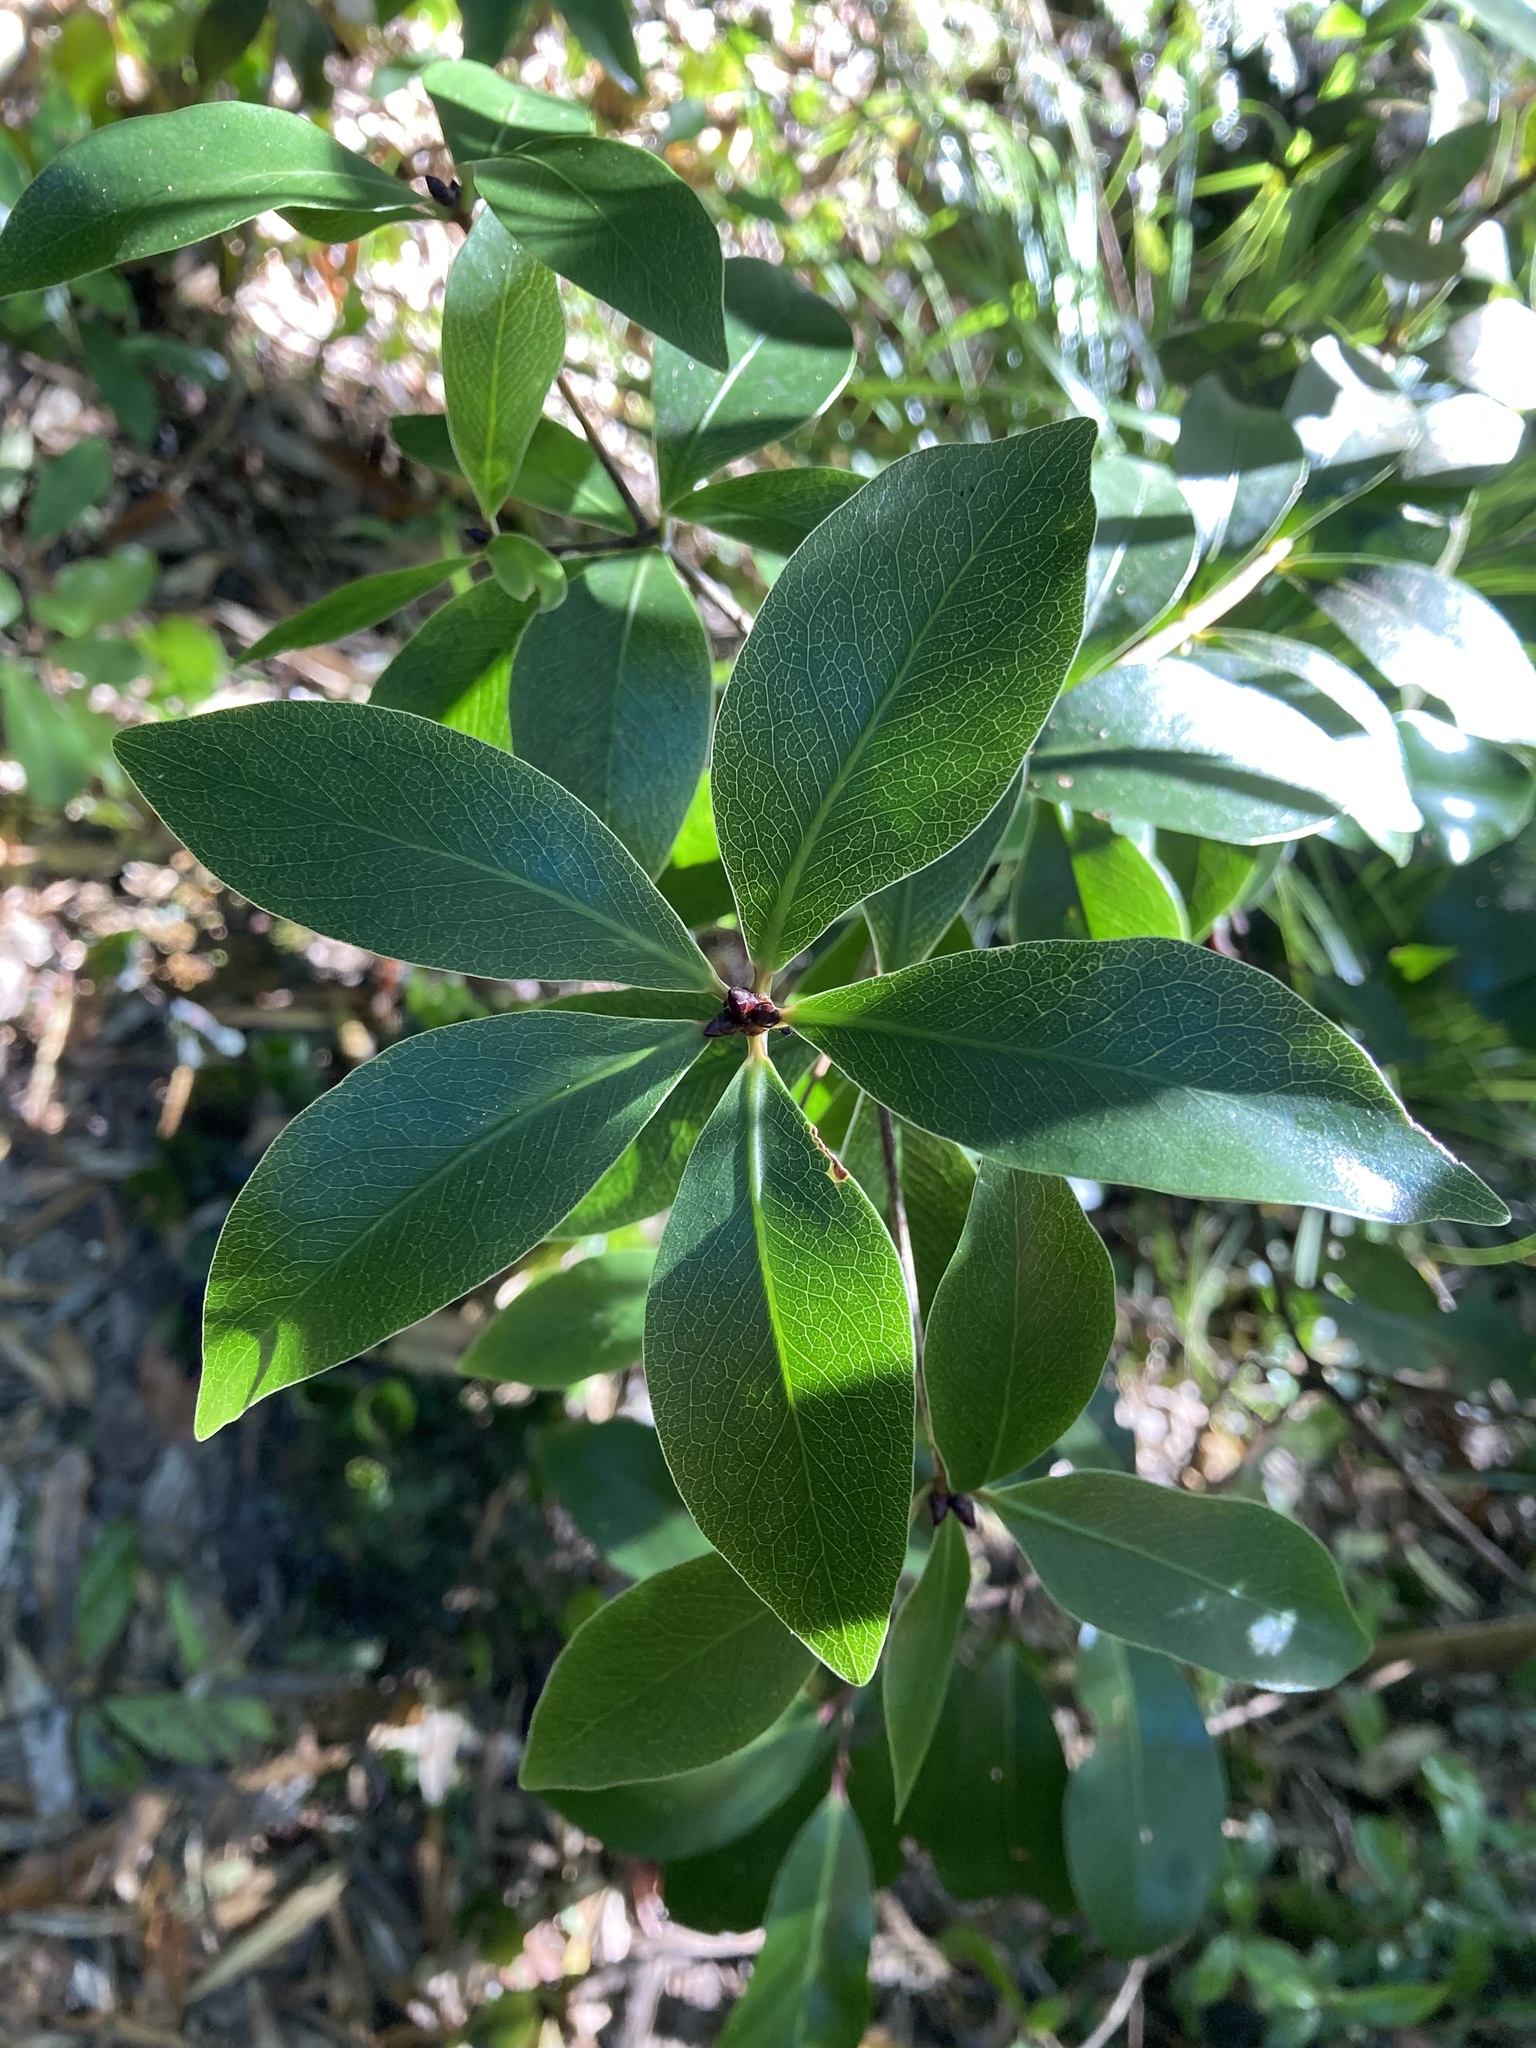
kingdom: Plantae
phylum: Tracheophyta
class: Magnoliopsida
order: Apiales
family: Pittosporaceae
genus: Pittosporum
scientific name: Pittosporum cornifolium
